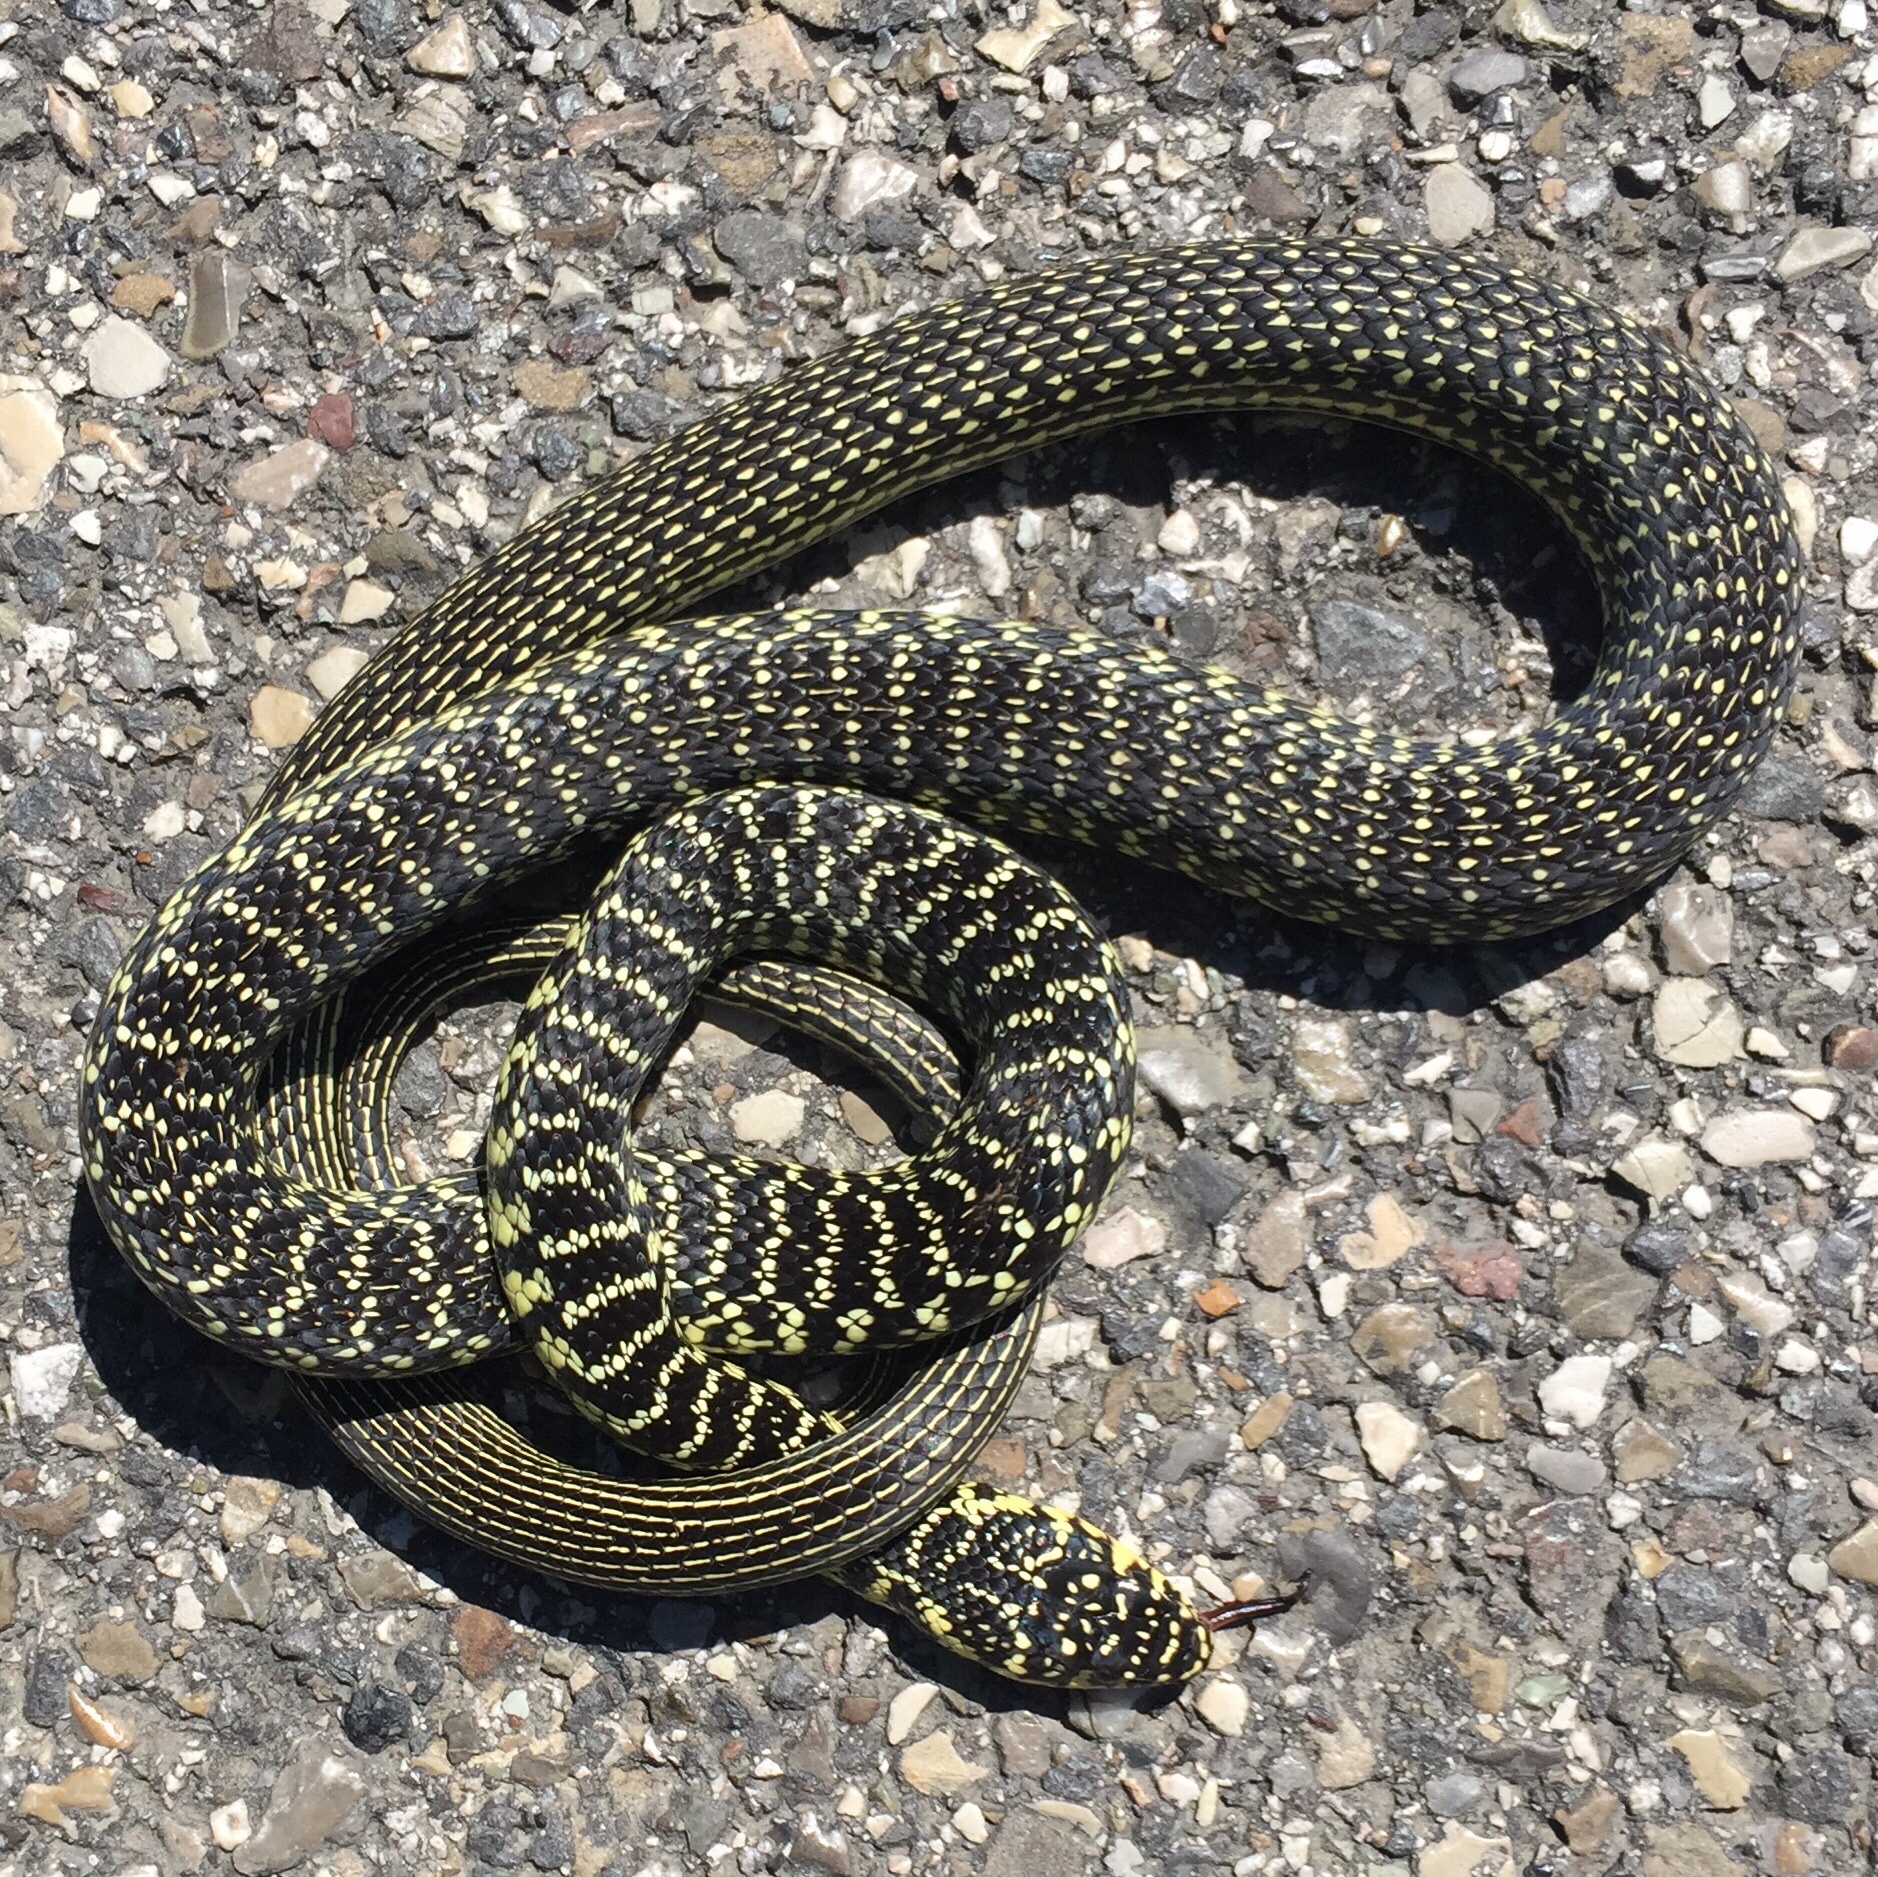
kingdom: Animalia
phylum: Chordata
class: Squamata
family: Colubridae
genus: Hierophis
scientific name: Hierophis viridiflavus
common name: Green whip snake
